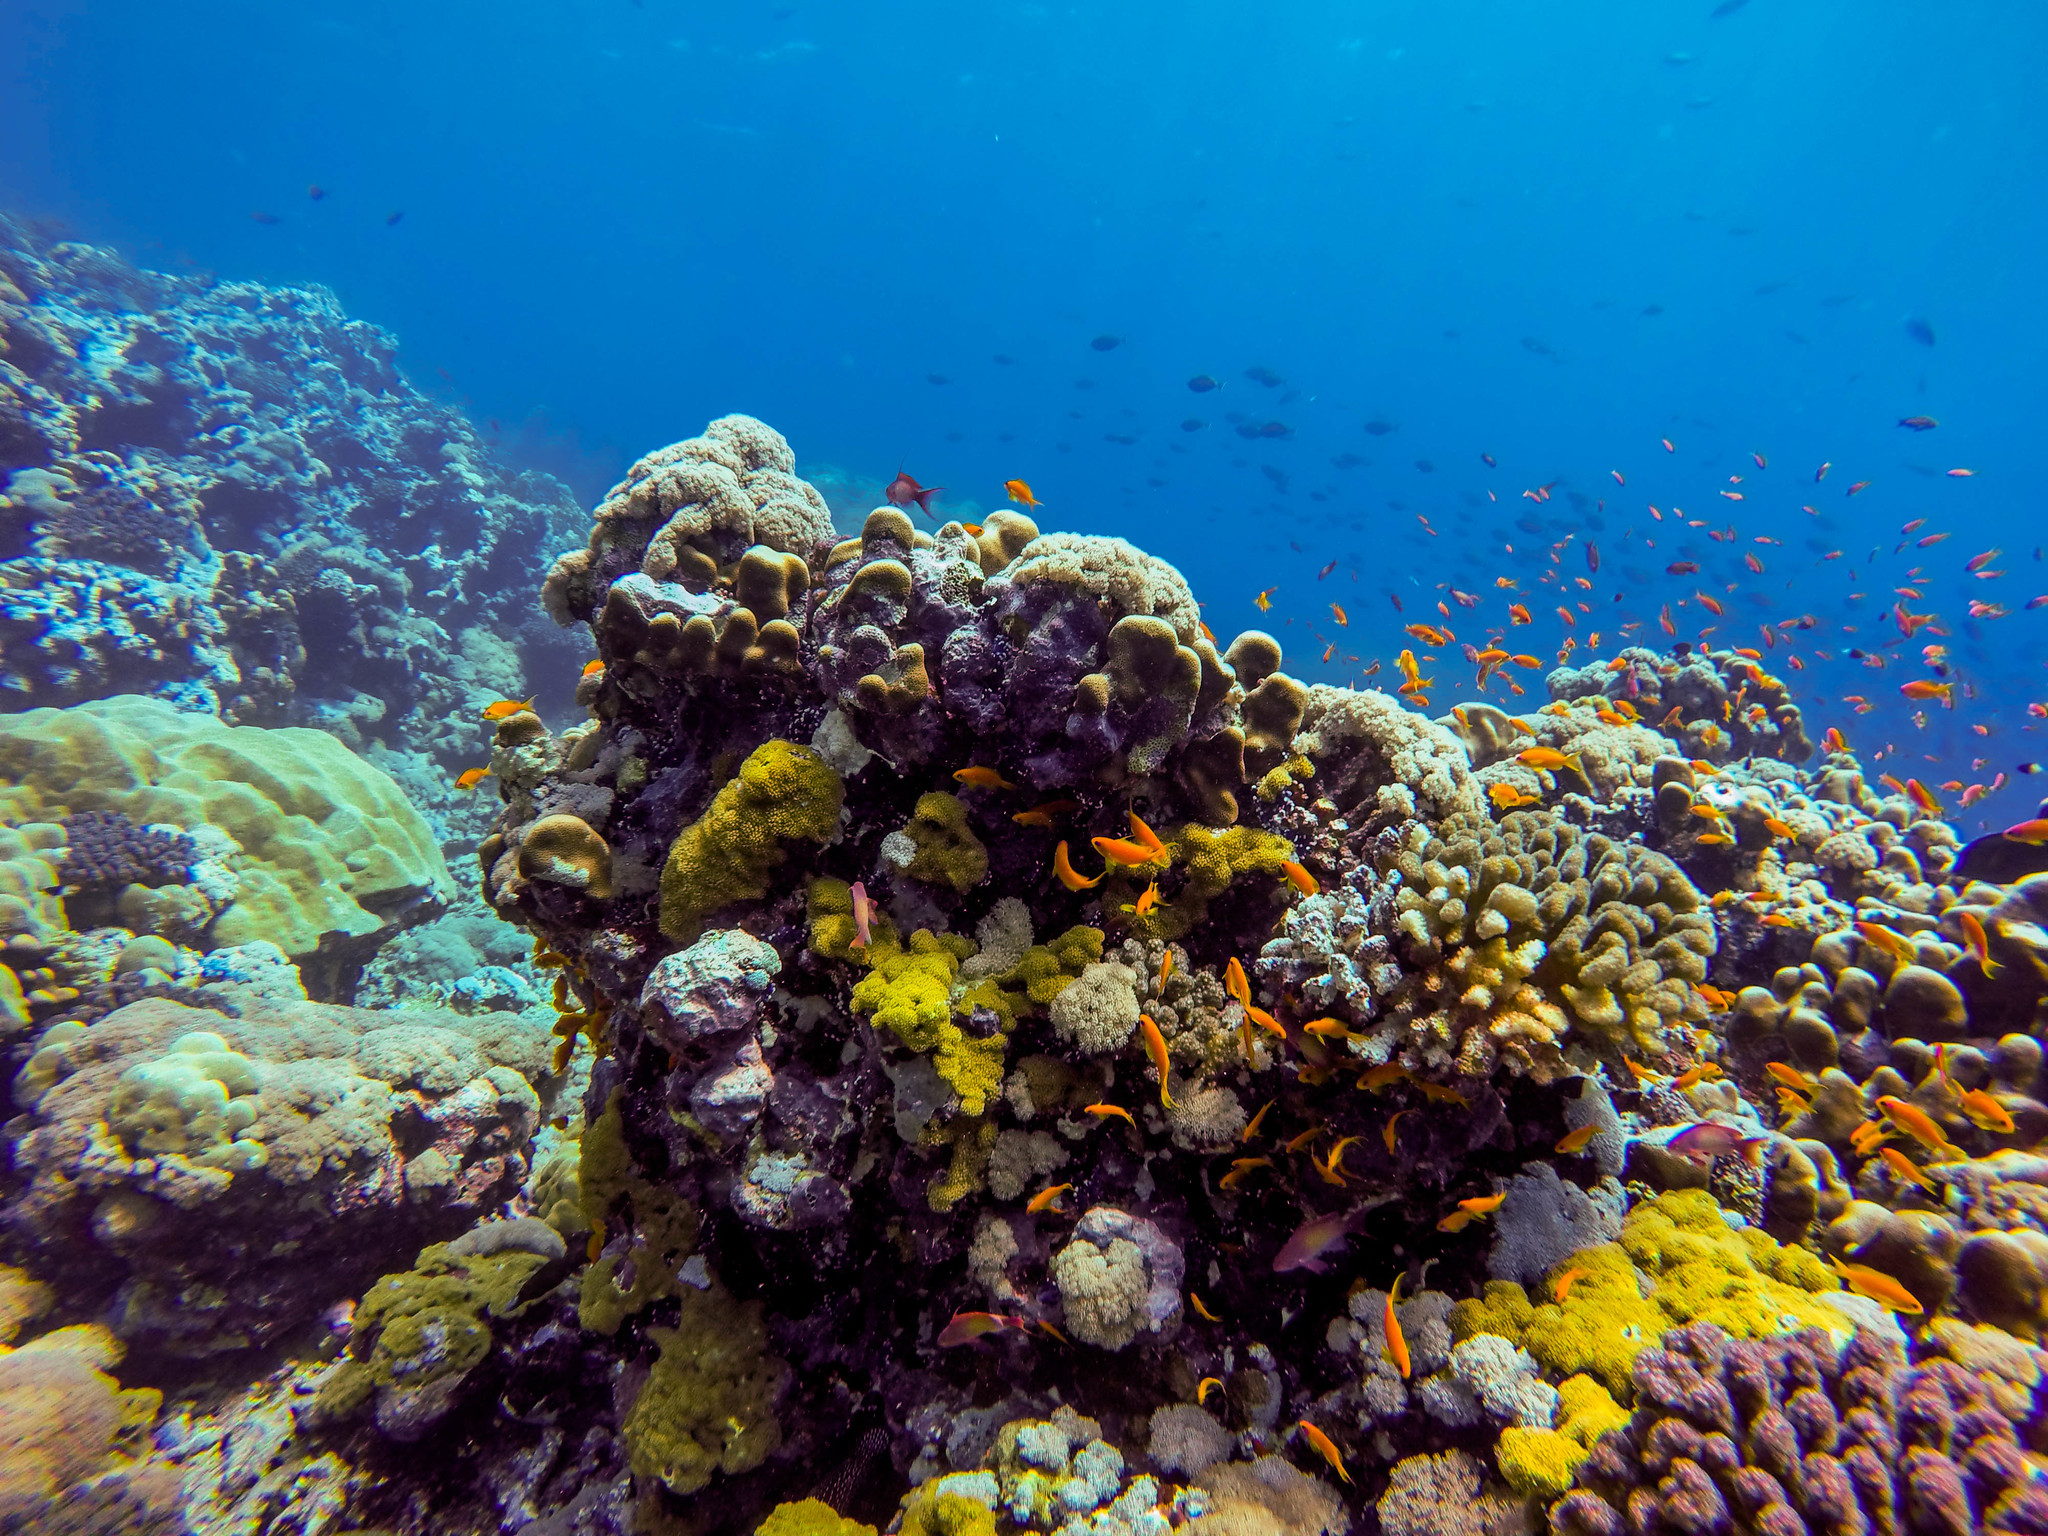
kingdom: Animalia
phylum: Chordata
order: Perciformes
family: Serranidae
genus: Pseudanthias
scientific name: Pseudanthias squamipinnis
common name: Scalefin anthias
